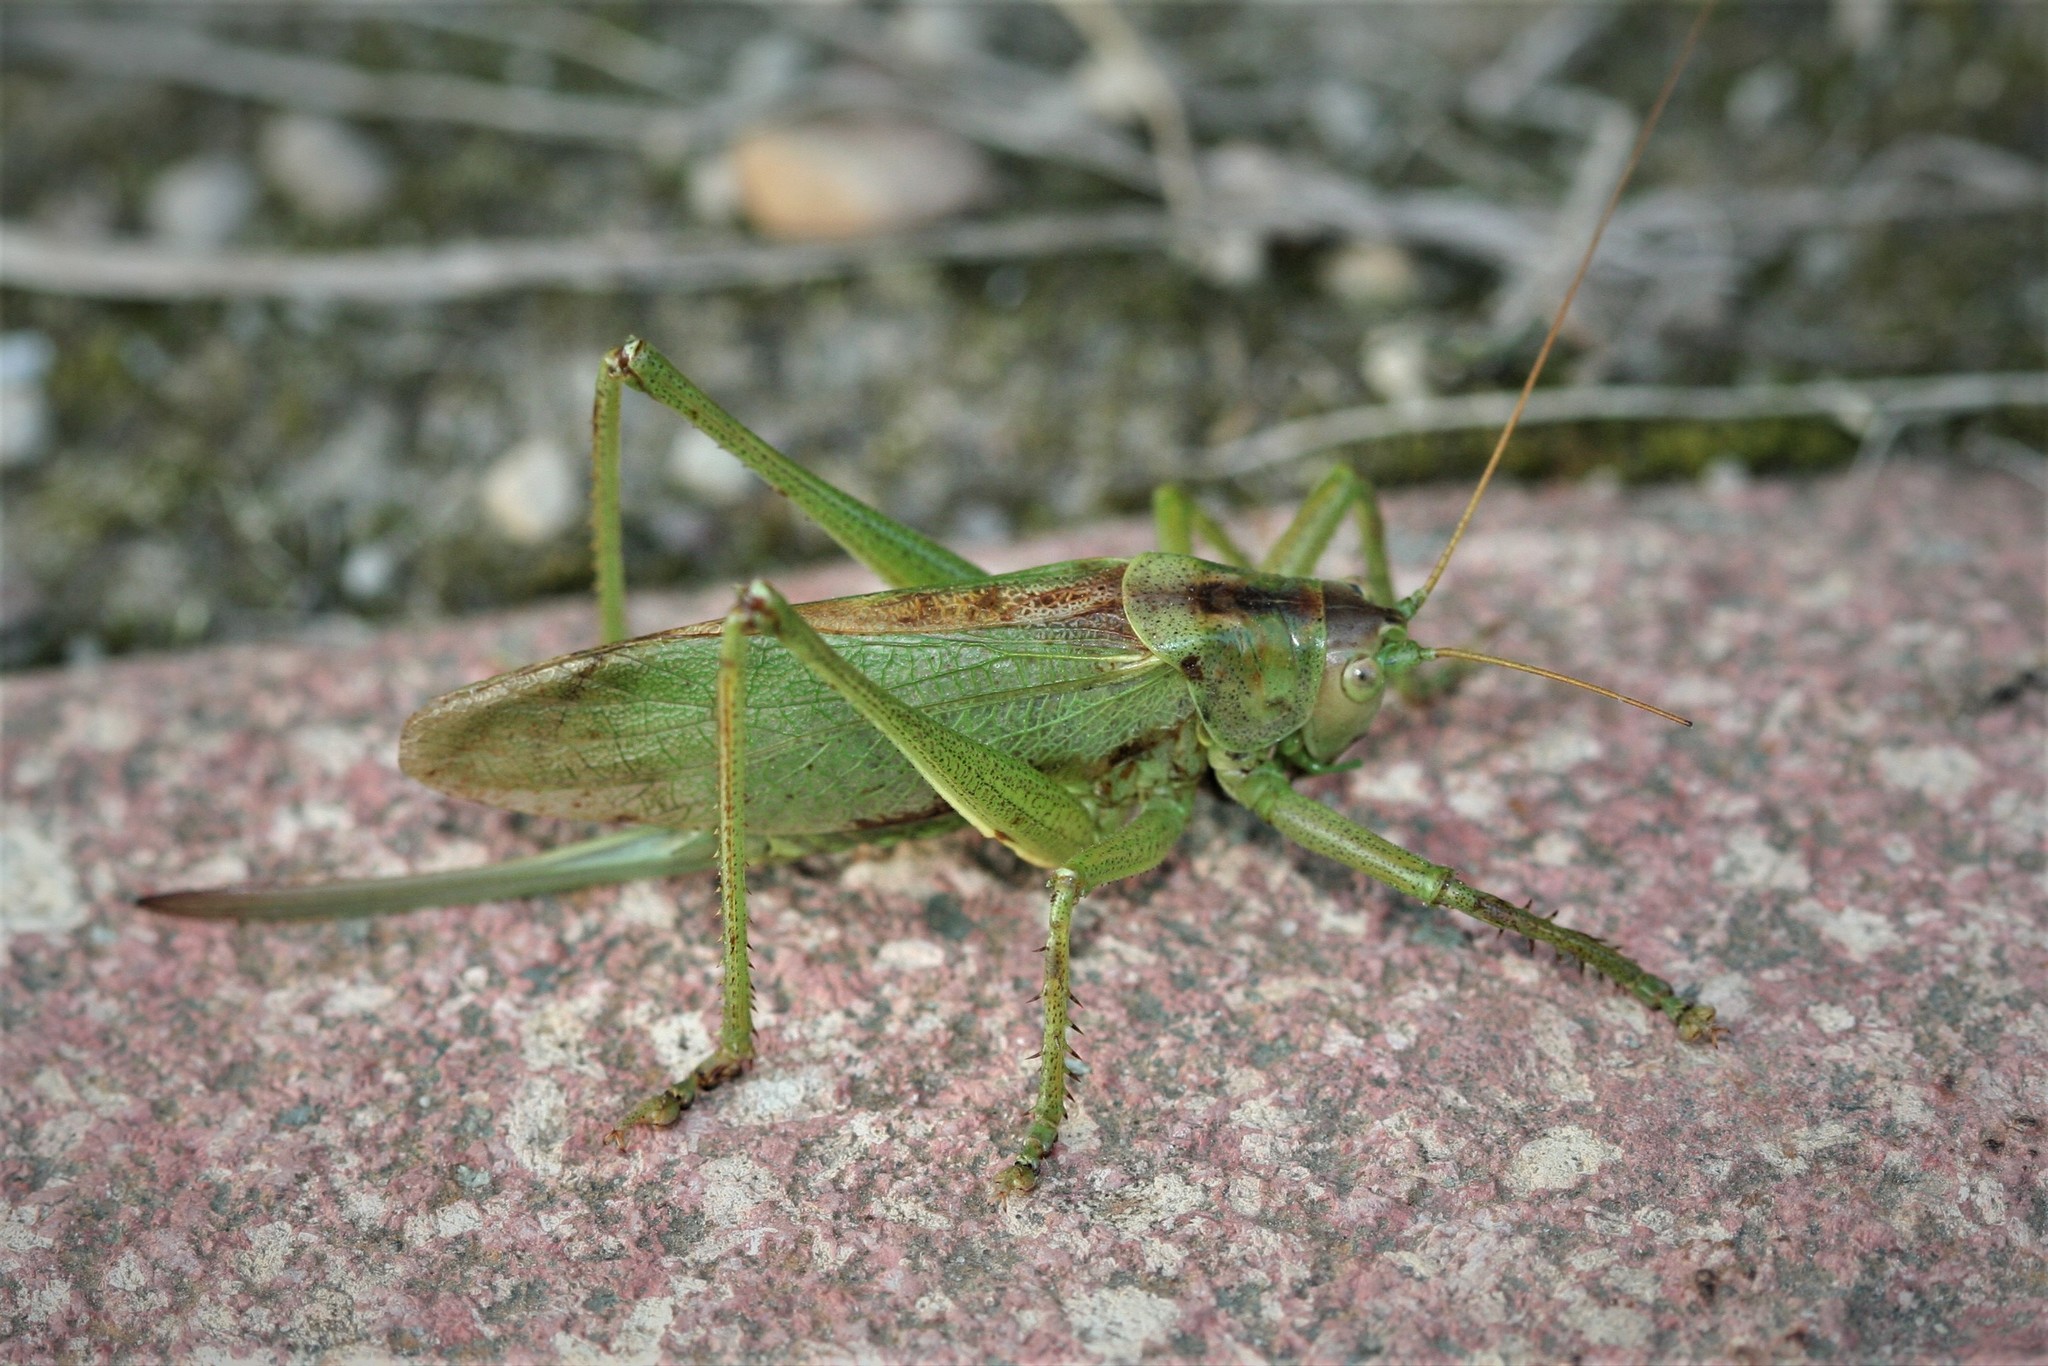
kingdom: Animalia
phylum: Arthropoda
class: Insecta
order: Orthoptera
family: Tettigoniidae
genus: Tettigonia
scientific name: Tettigonia cantans
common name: Upland green bush-cricket
